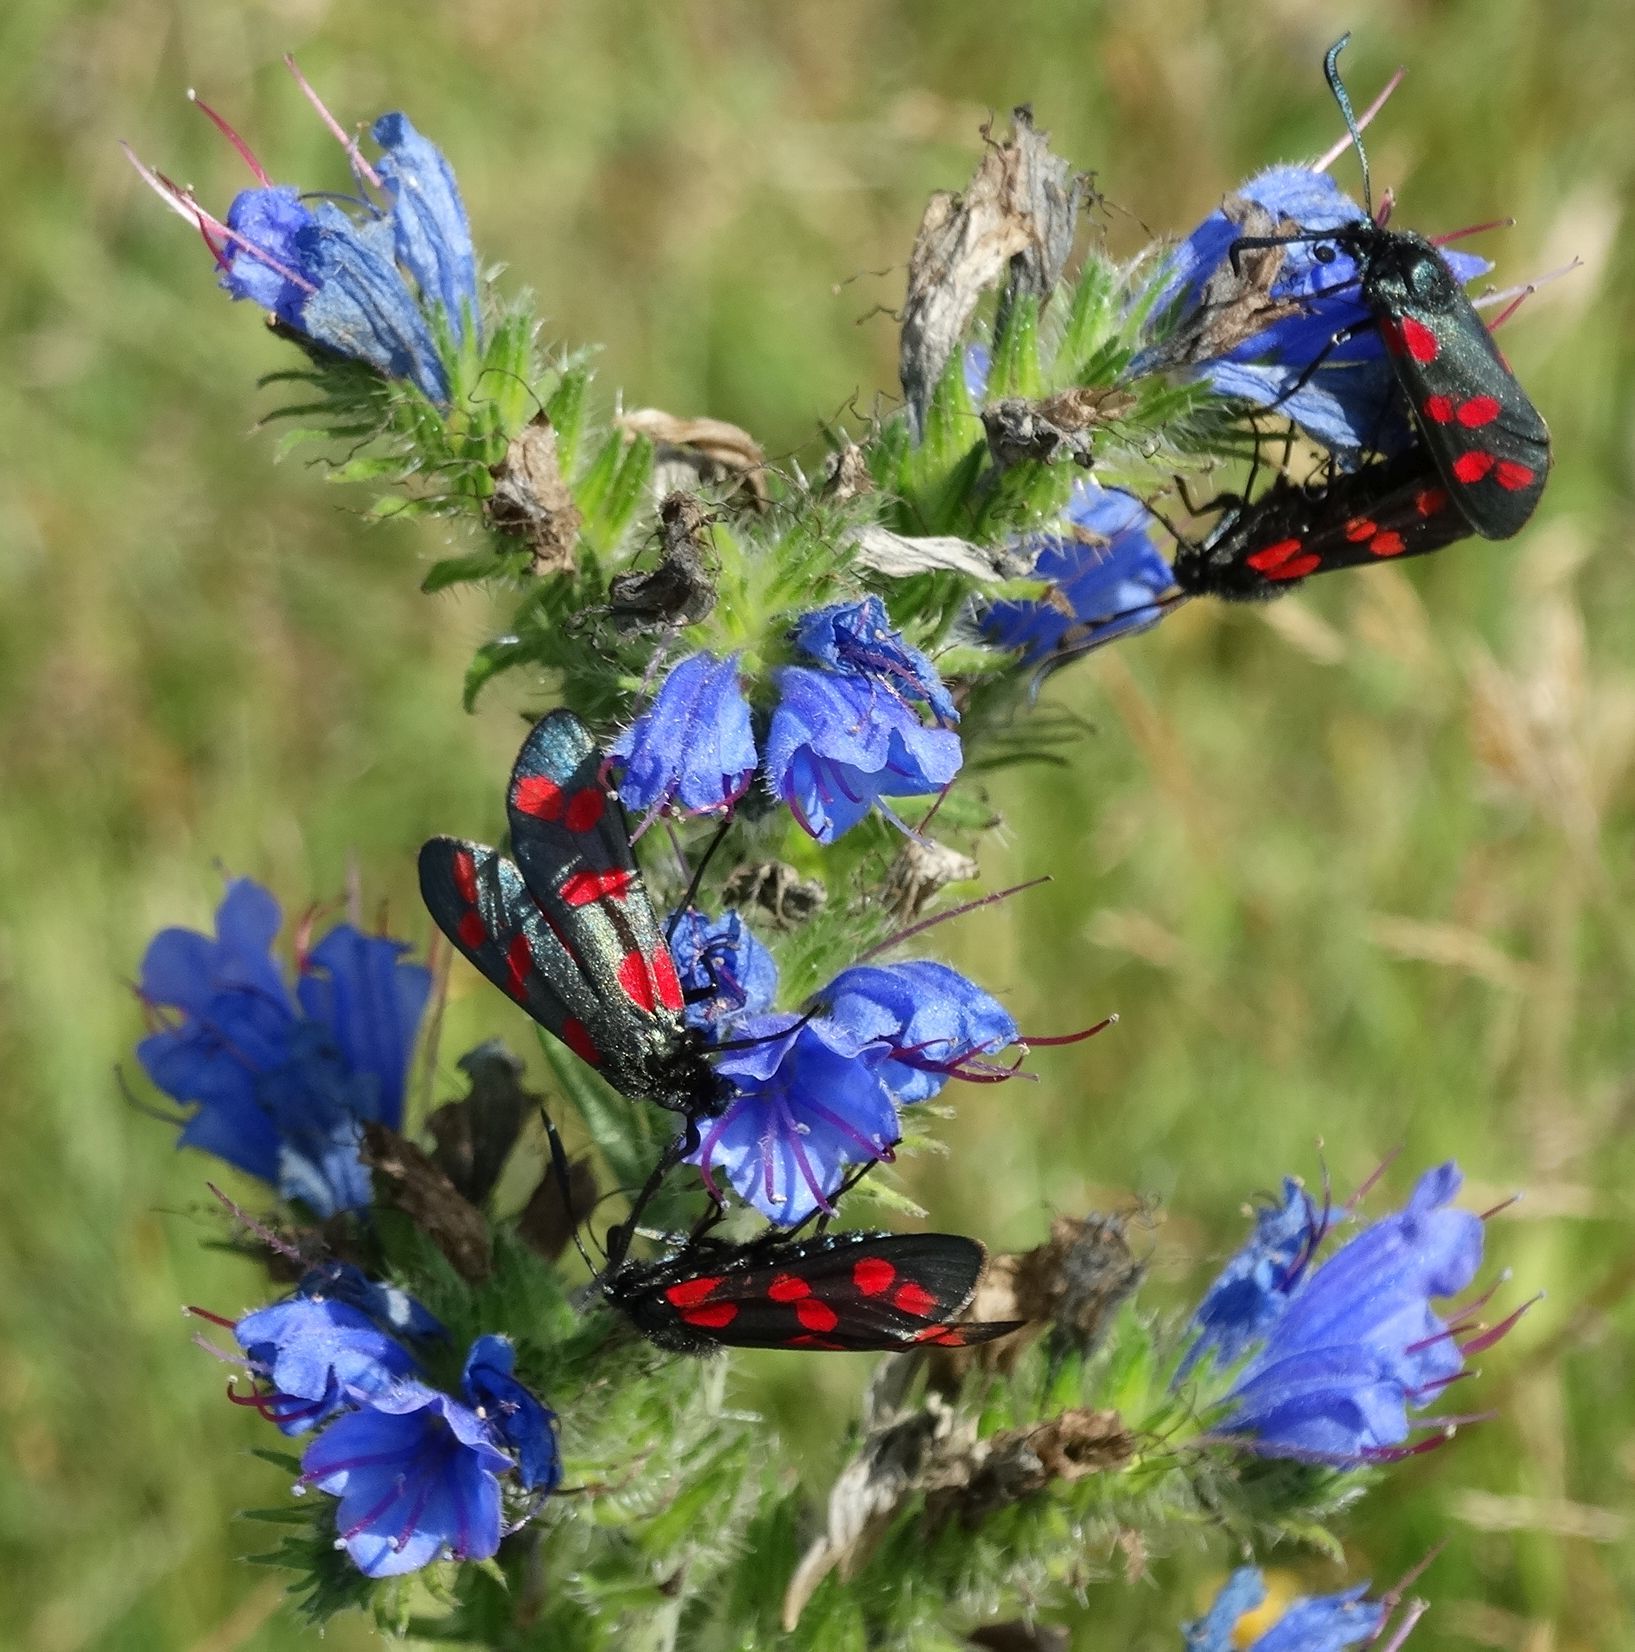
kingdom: Animalia
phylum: Arthropoda
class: Insecta
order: Lepidoptera
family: Zygaenidae
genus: Zygaena
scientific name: Zygaena filipendulae
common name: Six-spot burnet
